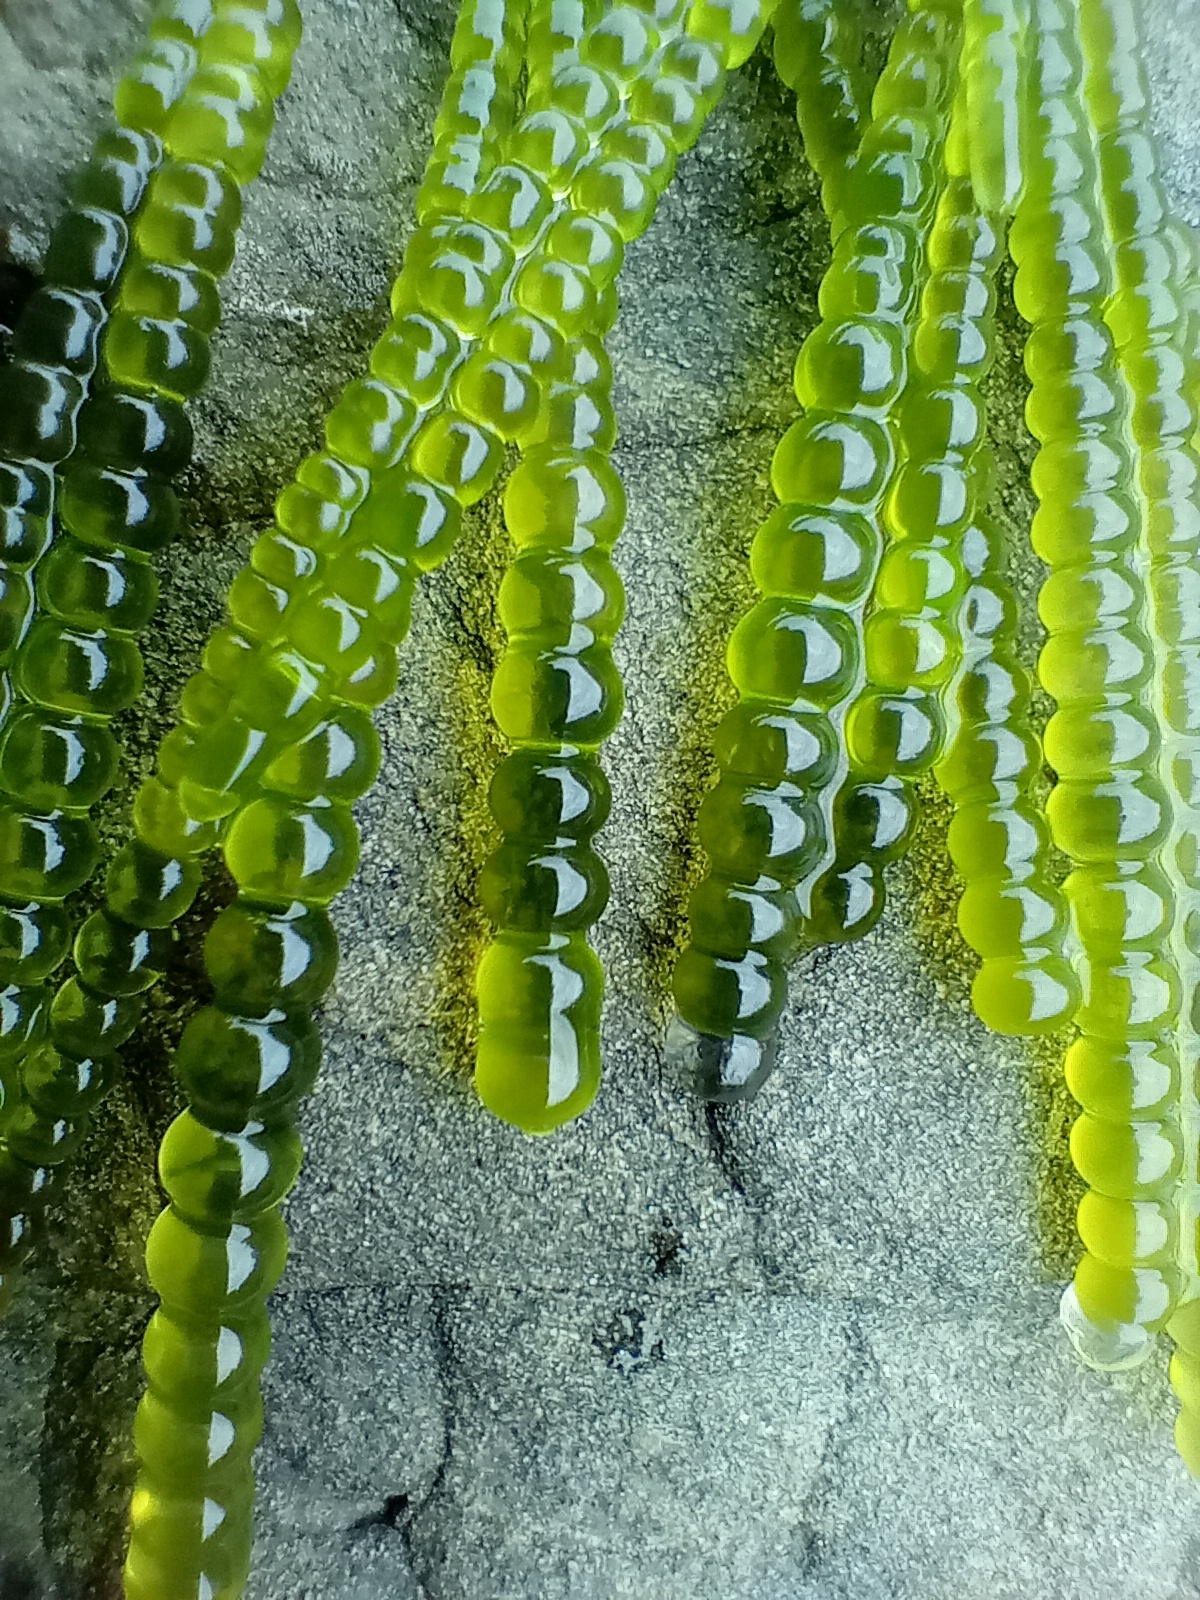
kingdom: Plantae
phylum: Chlorophyta
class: Ulvophyceae
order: Cladophorales
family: Cladophoraceae
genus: Chaetomorpha
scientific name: Chaetomorpha coliformis
